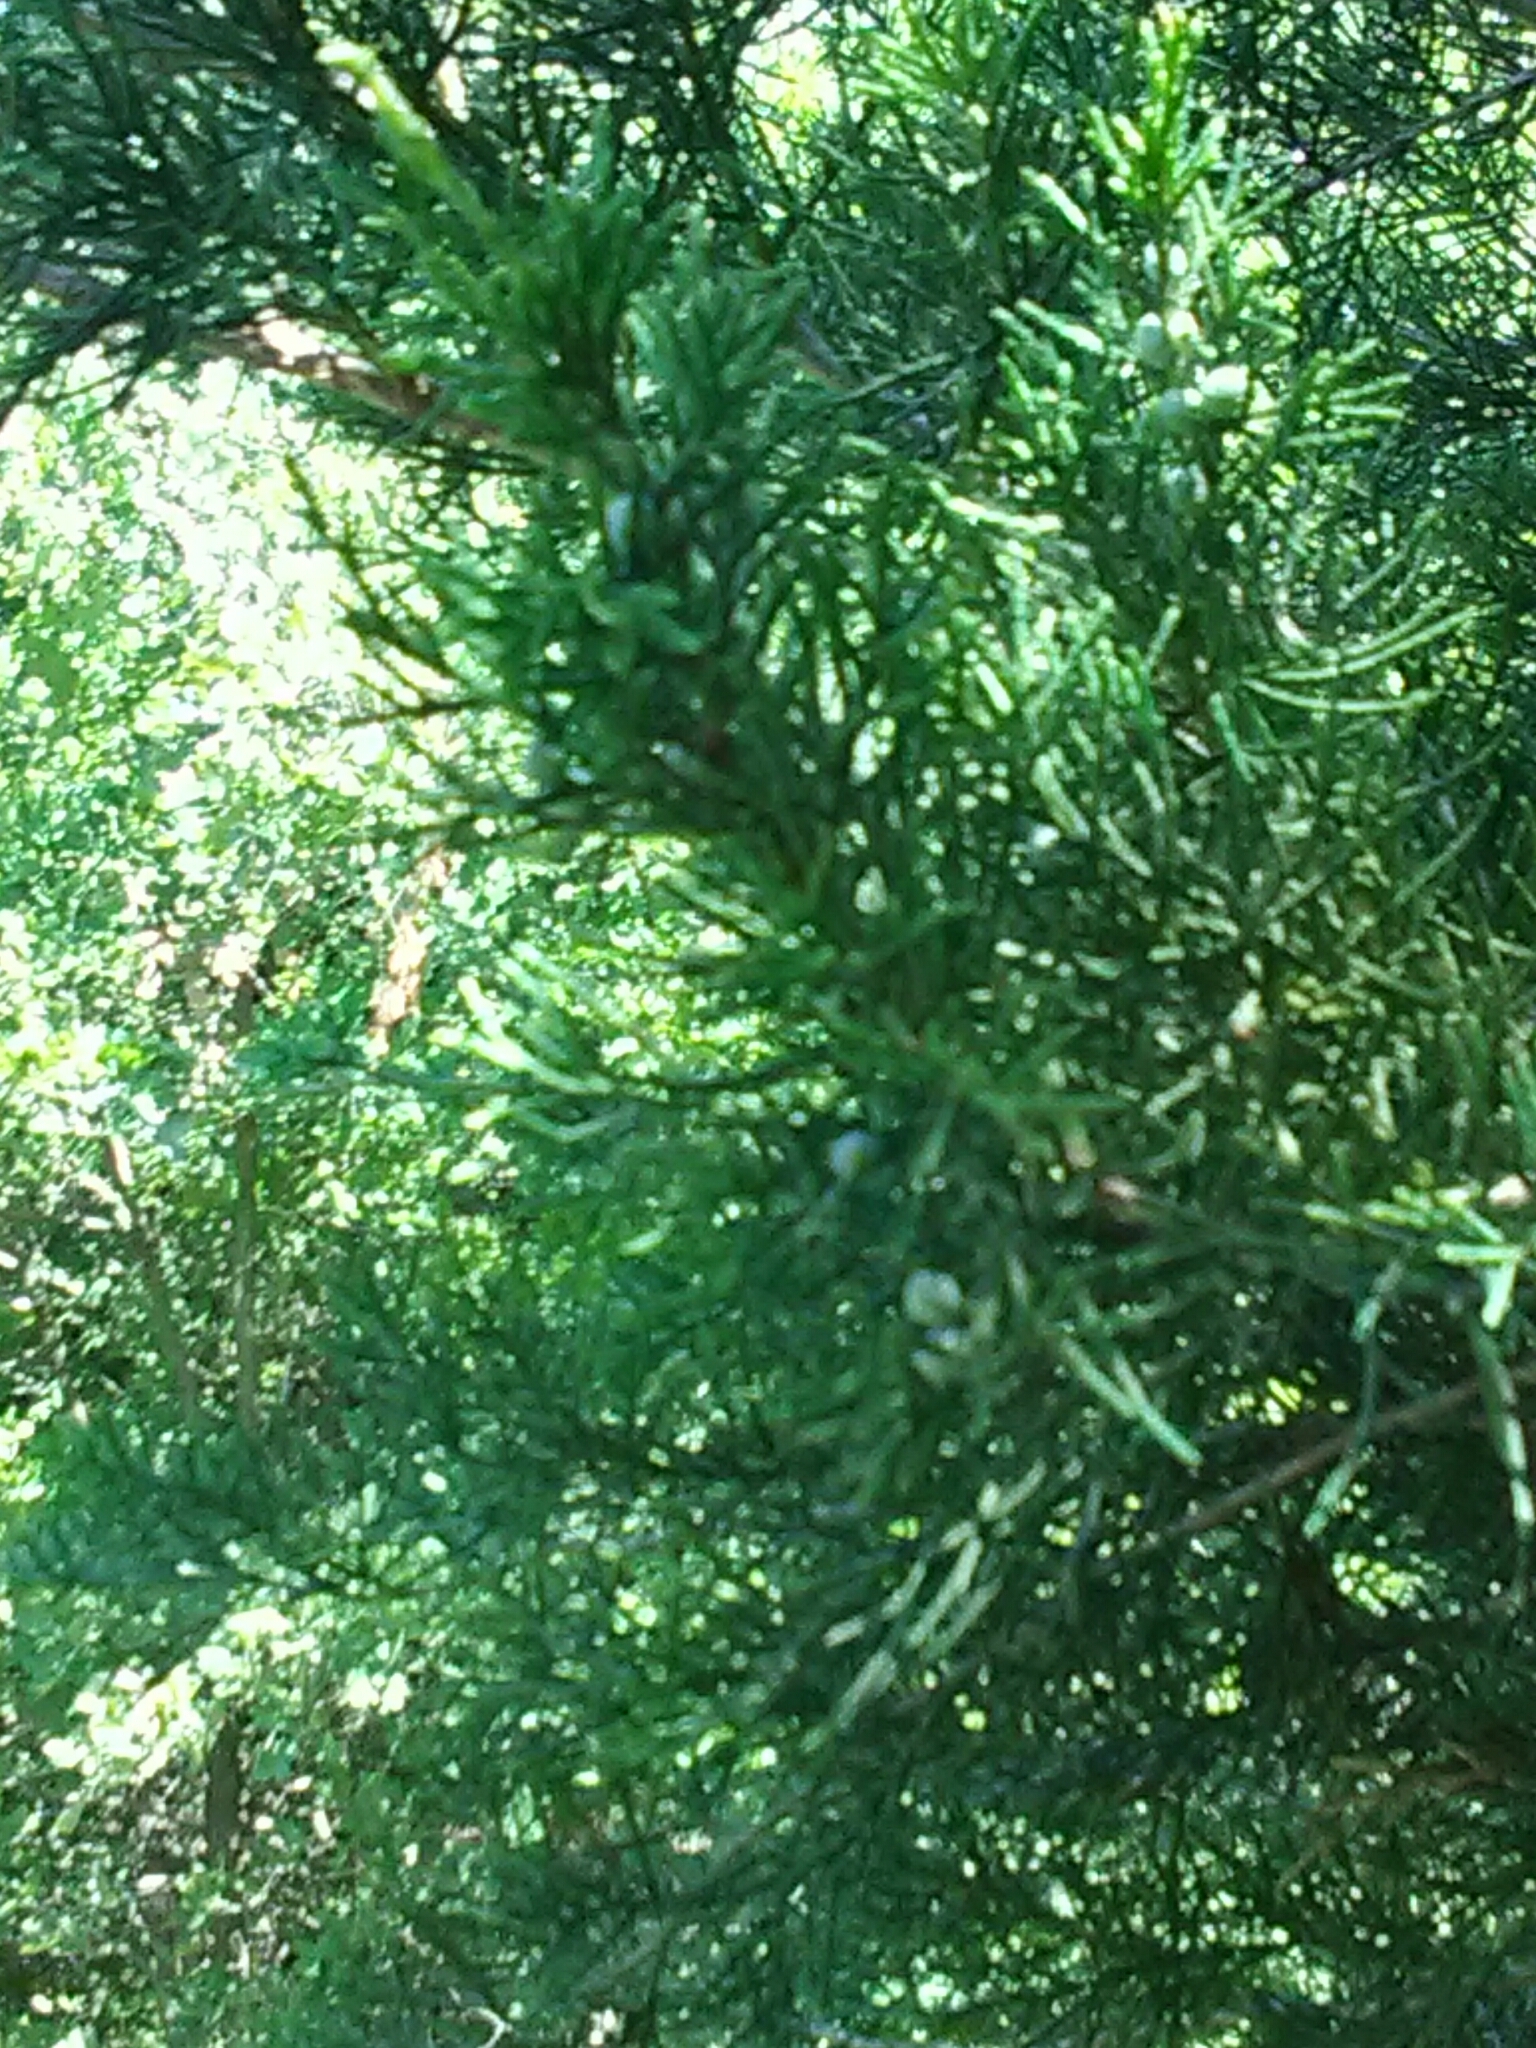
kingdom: Plantae
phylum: Tracheophyta
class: Pinopsida
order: Pinales
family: Cupressaceae
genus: Juniperus
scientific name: Juniperus virginiana
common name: Red juniper
